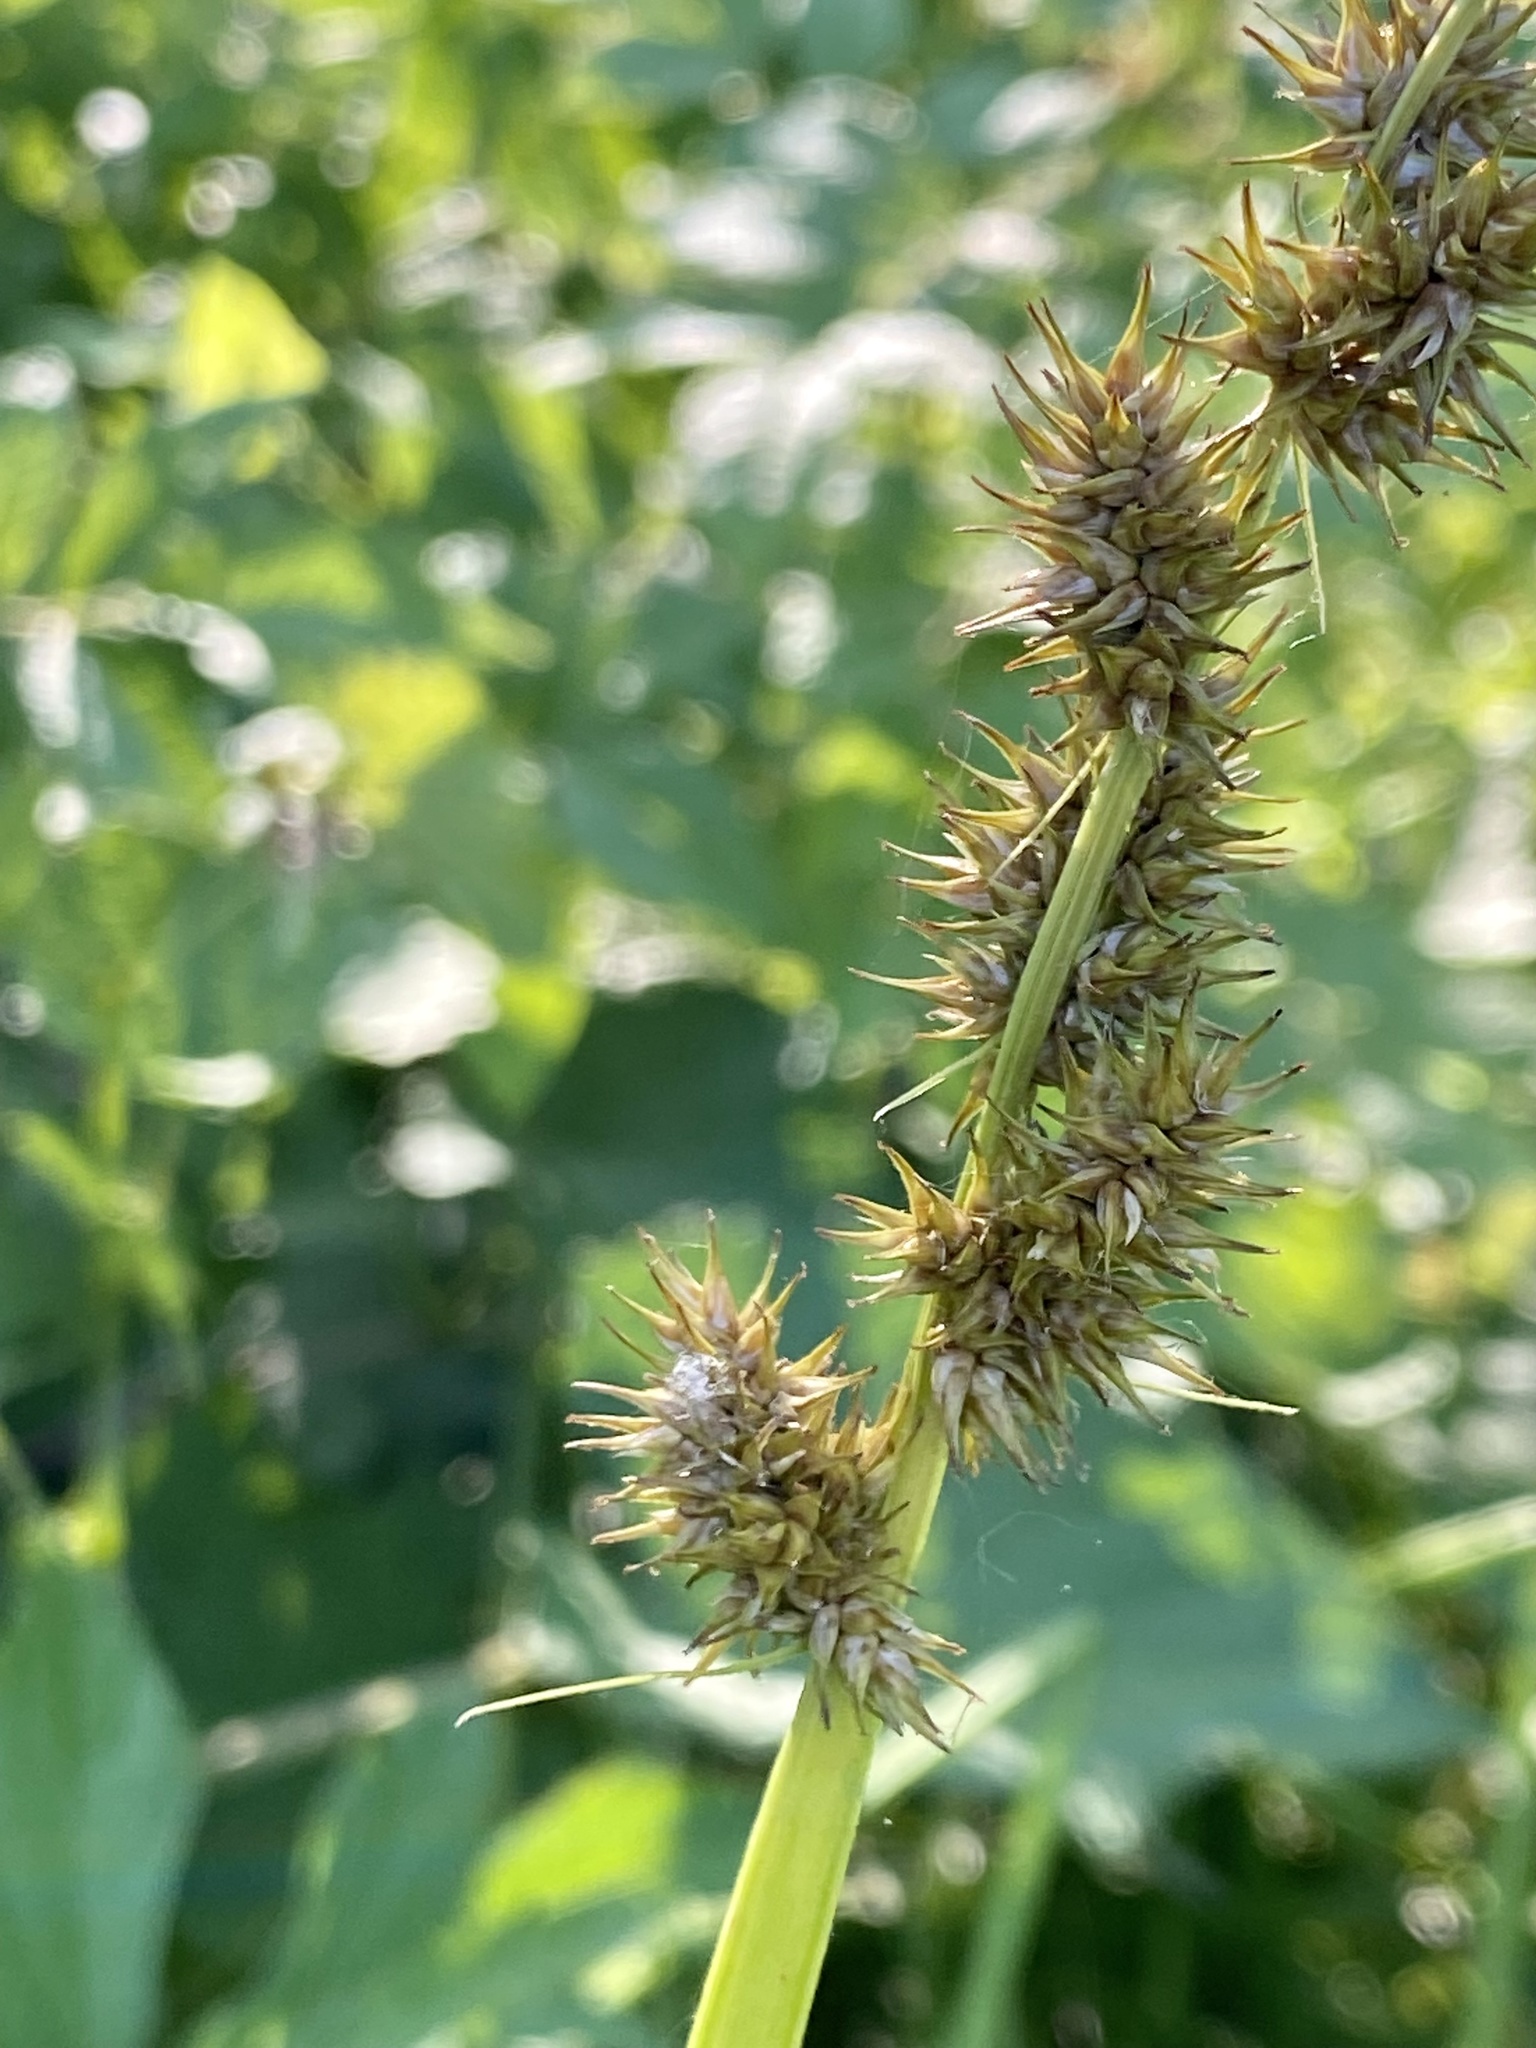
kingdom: Plantae
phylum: Tracheophyta
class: Liliopsida
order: Poales
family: Cyperaceae
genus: Carex
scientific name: Carex stipata
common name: Awl-fruited sedge
